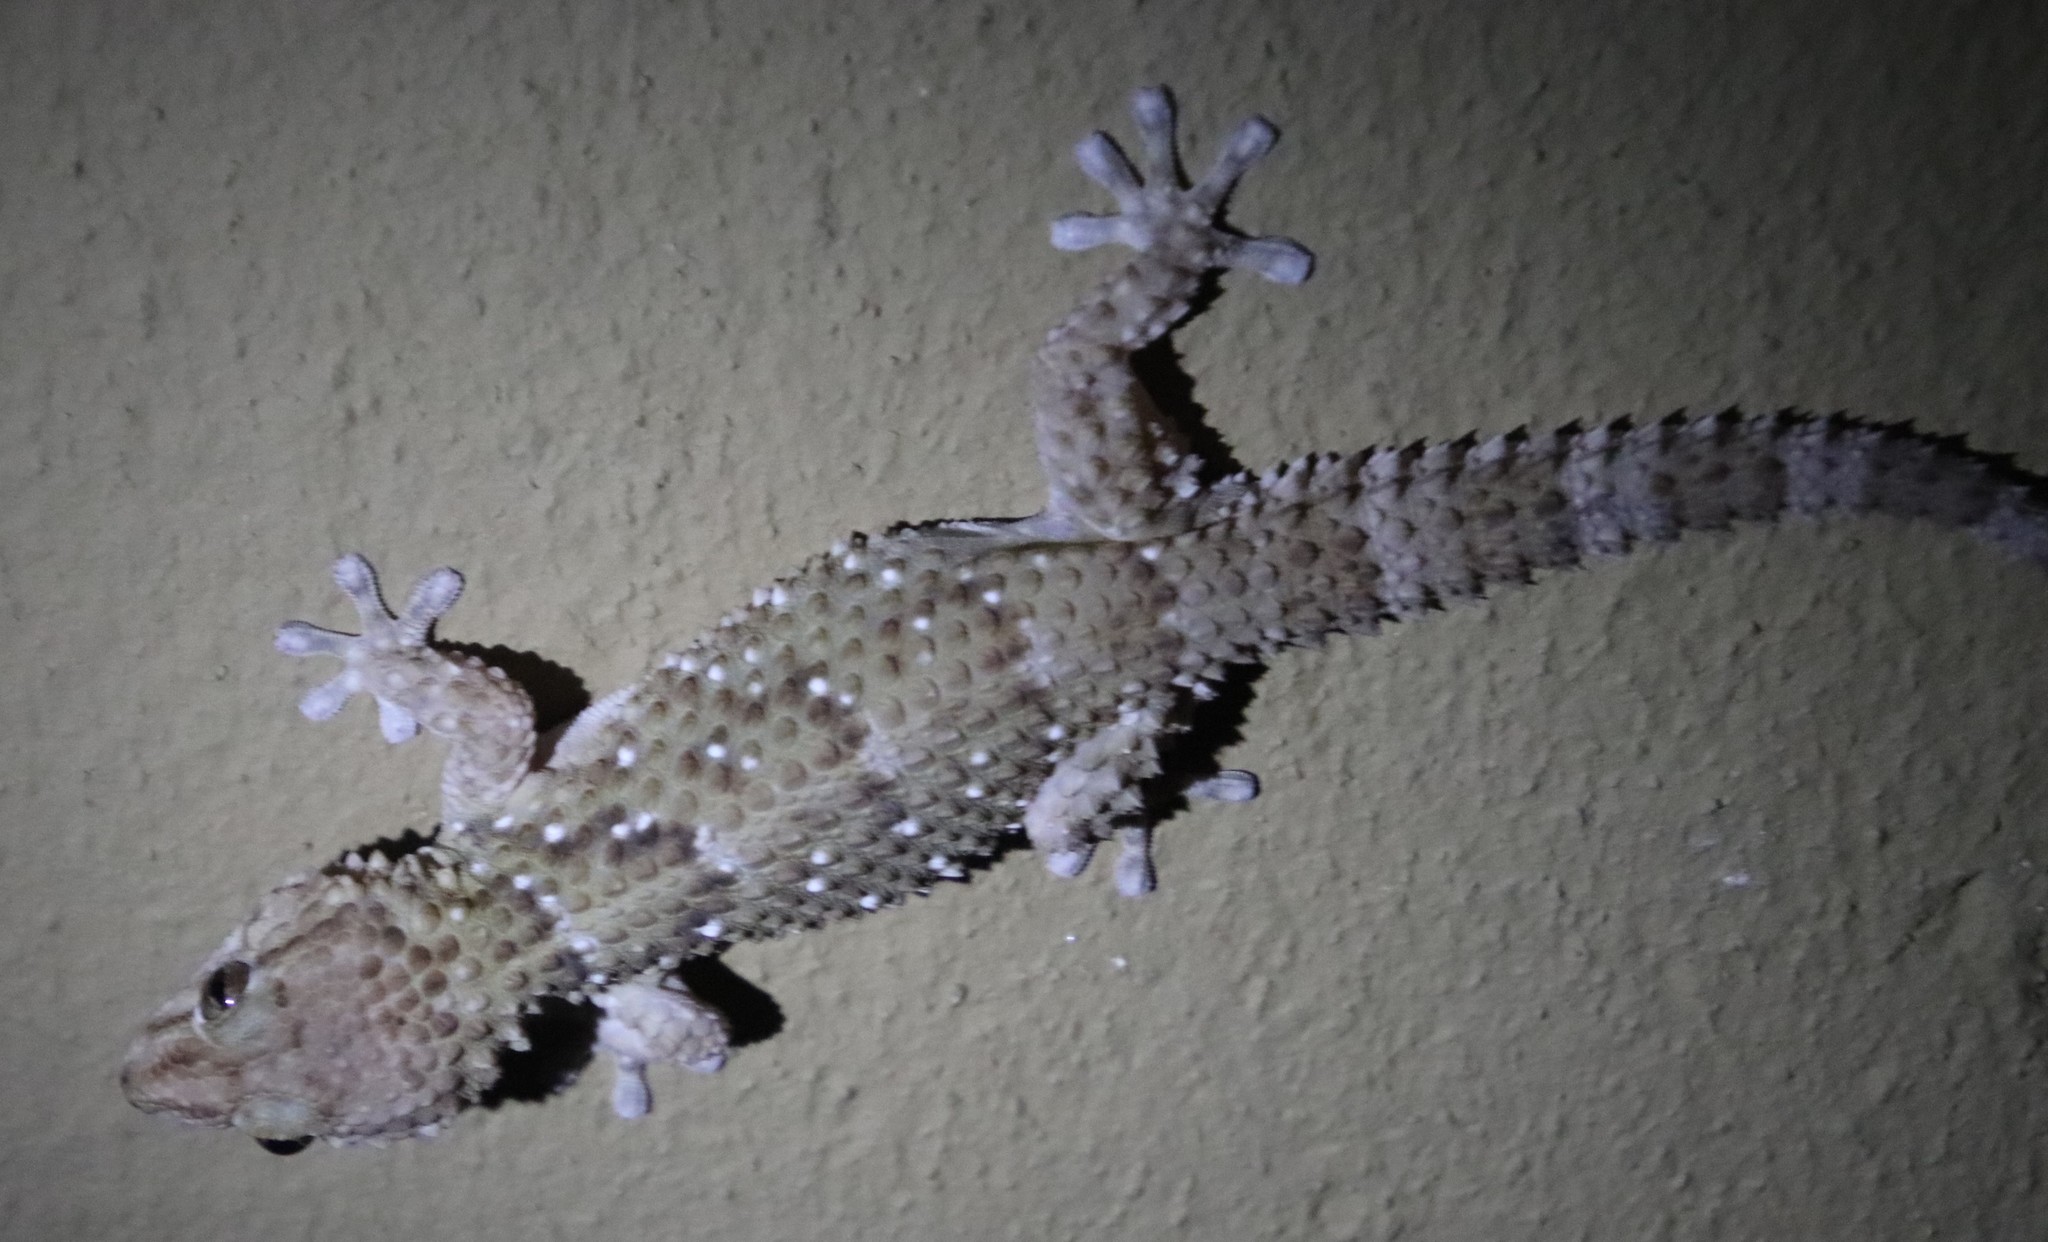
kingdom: Animalia
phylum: Chordata
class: Squamata
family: Gekkonidae
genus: Chondrodactylus
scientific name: Chondrodactylus bibronii
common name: Bibron's gecko
